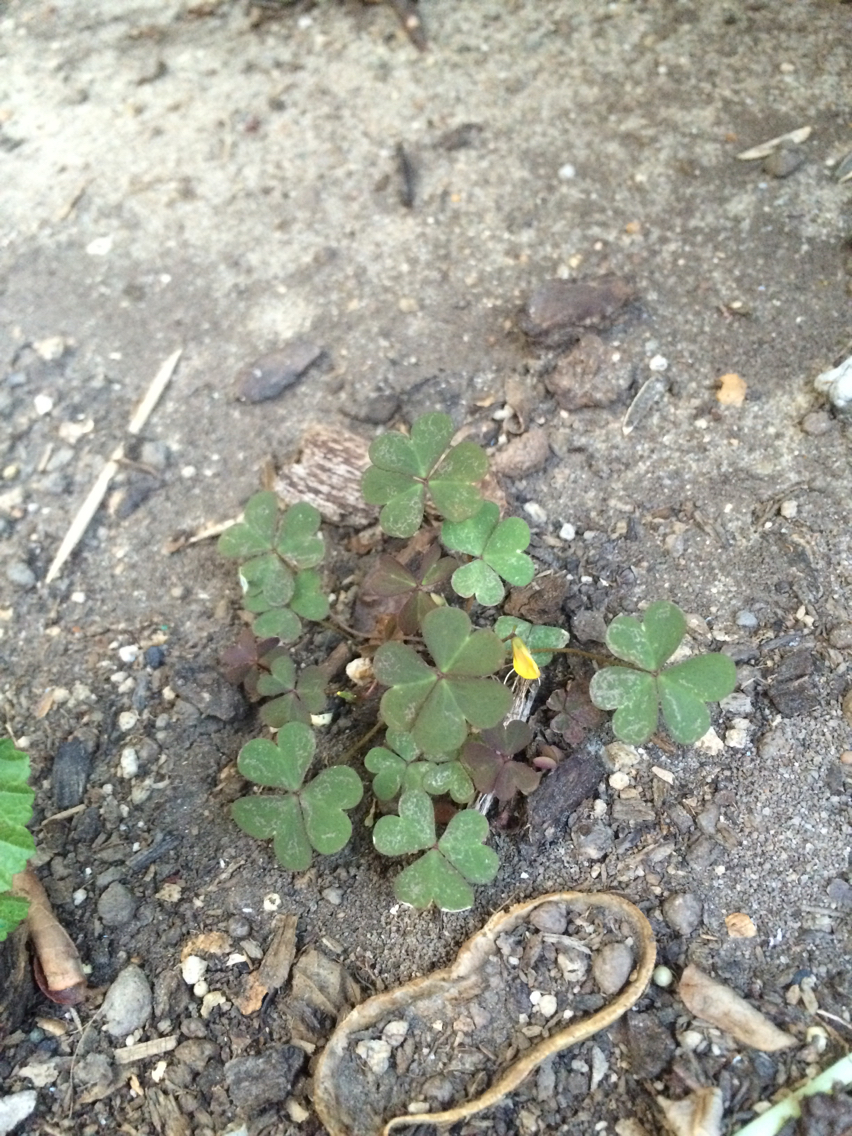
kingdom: Plantae
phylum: Tracheophyta
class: Magnoliopsida
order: Oxalidales
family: Oxalidaceae
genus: Oxalis
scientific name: Oxalis corniculata
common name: Procumbent yellow-sorrel
